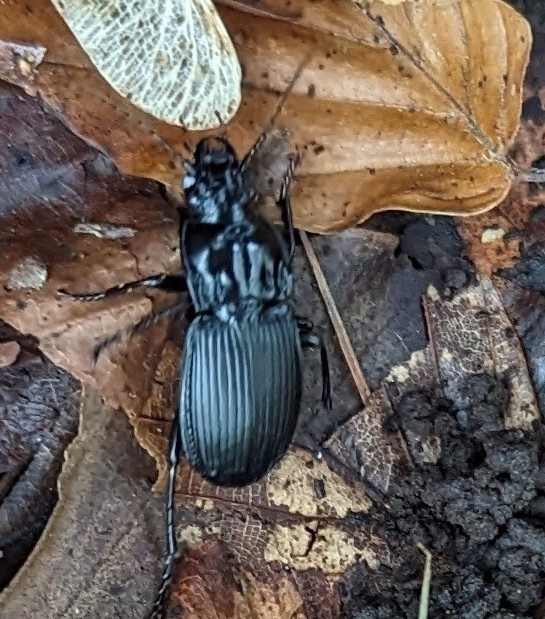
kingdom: Animalia
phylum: Arthropoda
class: Insecta
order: Coleoptera
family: Carabidae
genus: Abax
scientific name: Abax parallelepipedus
